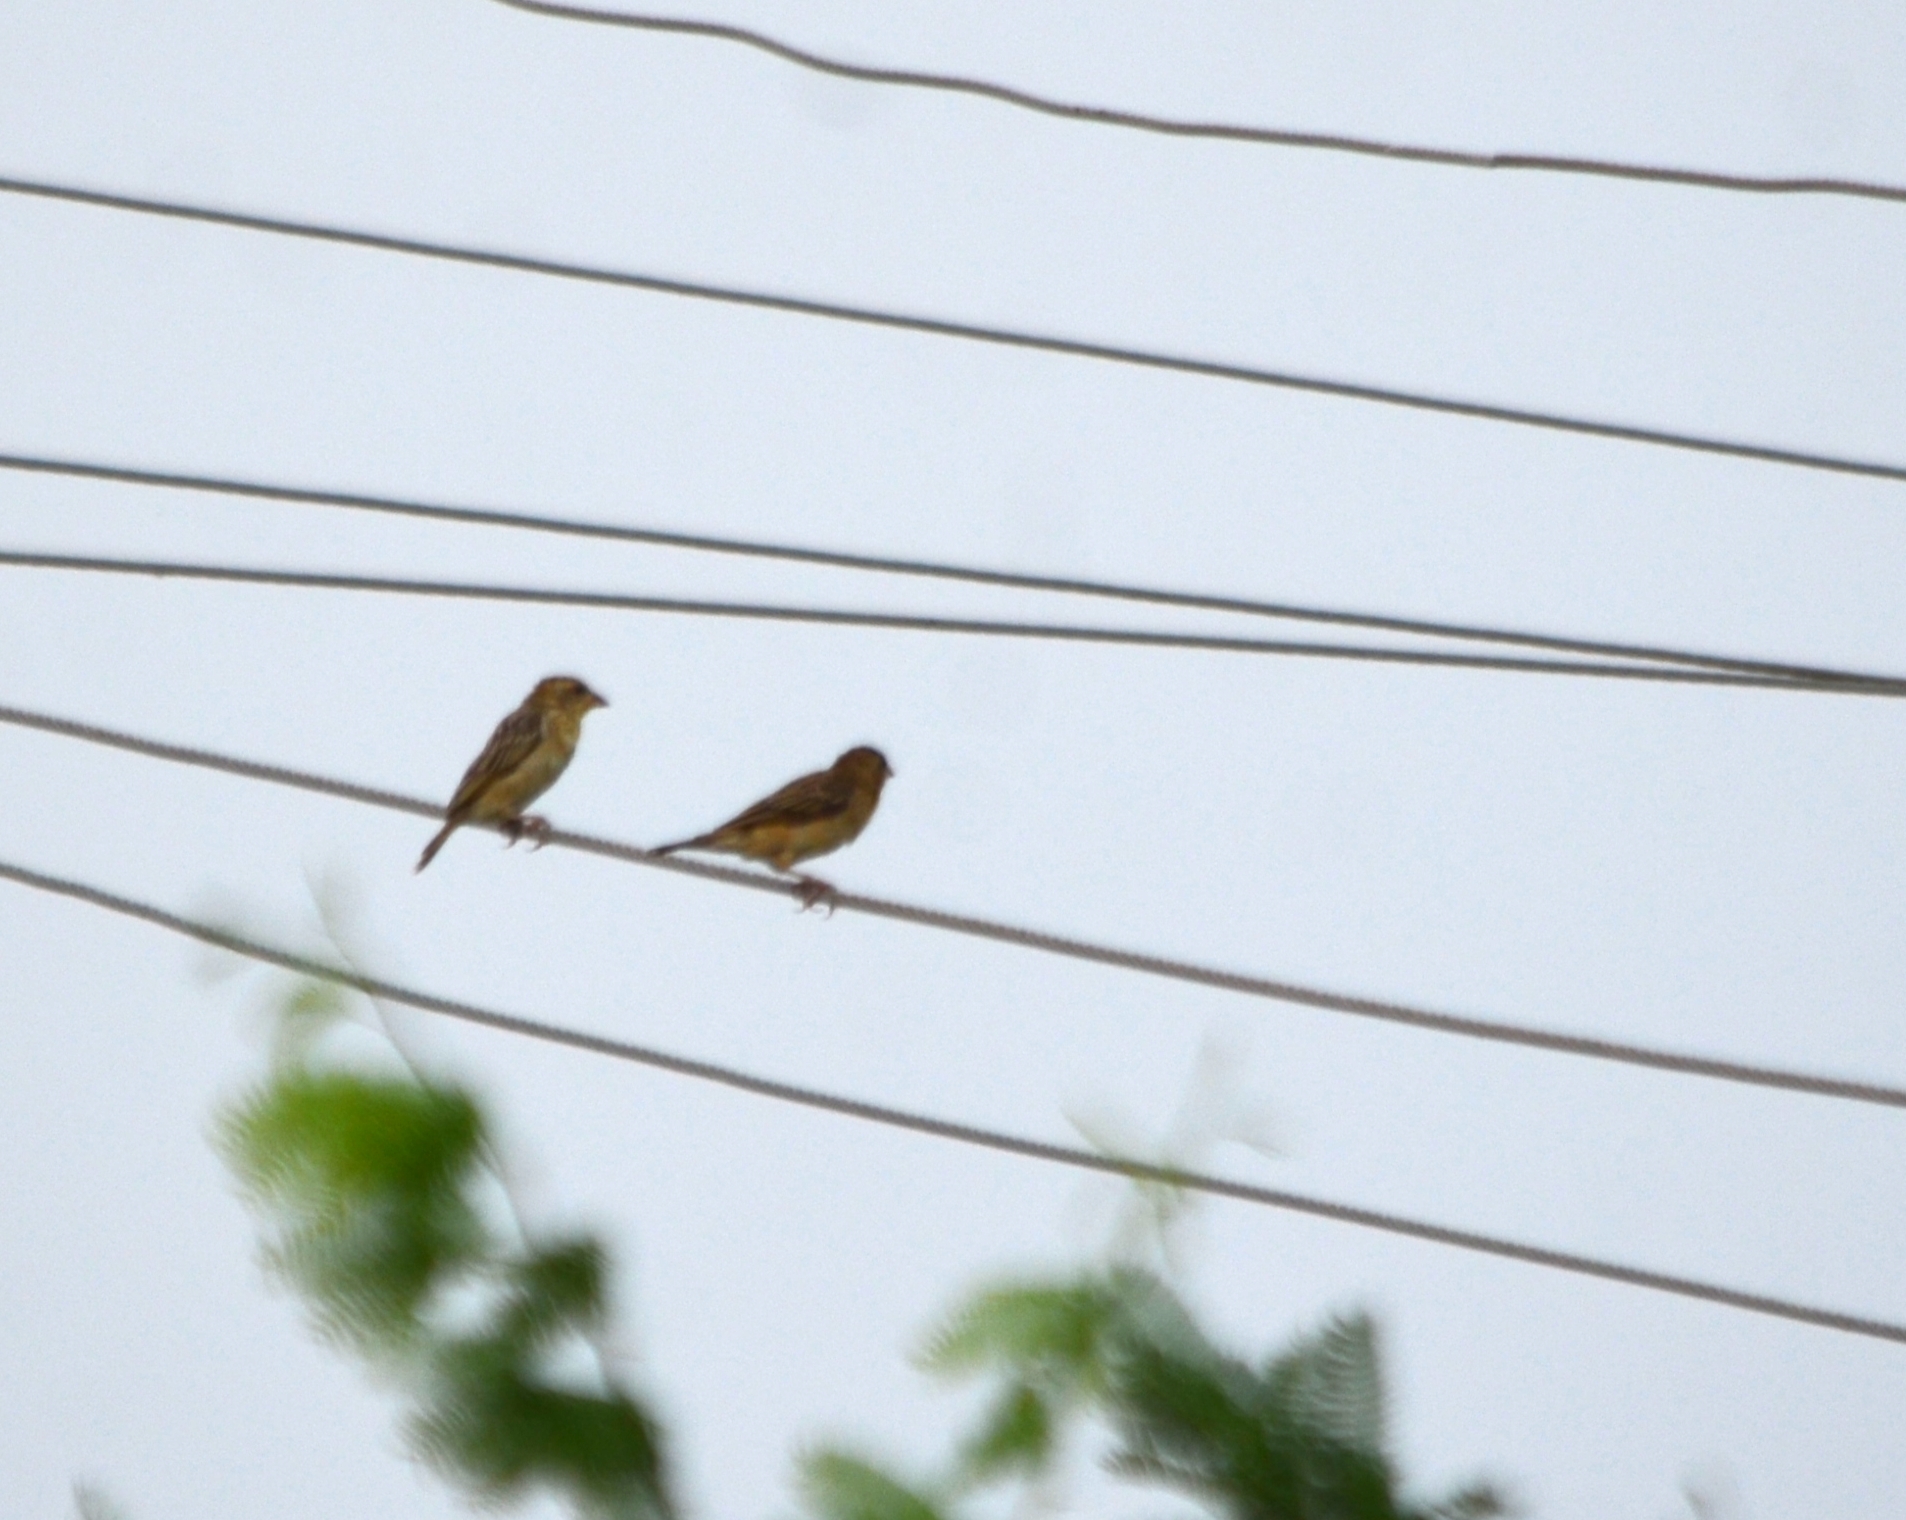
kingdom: Animalia
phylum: Chordata
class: Aves
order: Passeriformes
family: Ploceidae
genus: Ploceus
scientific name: Ploceus philippinus
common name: Baya weaver
